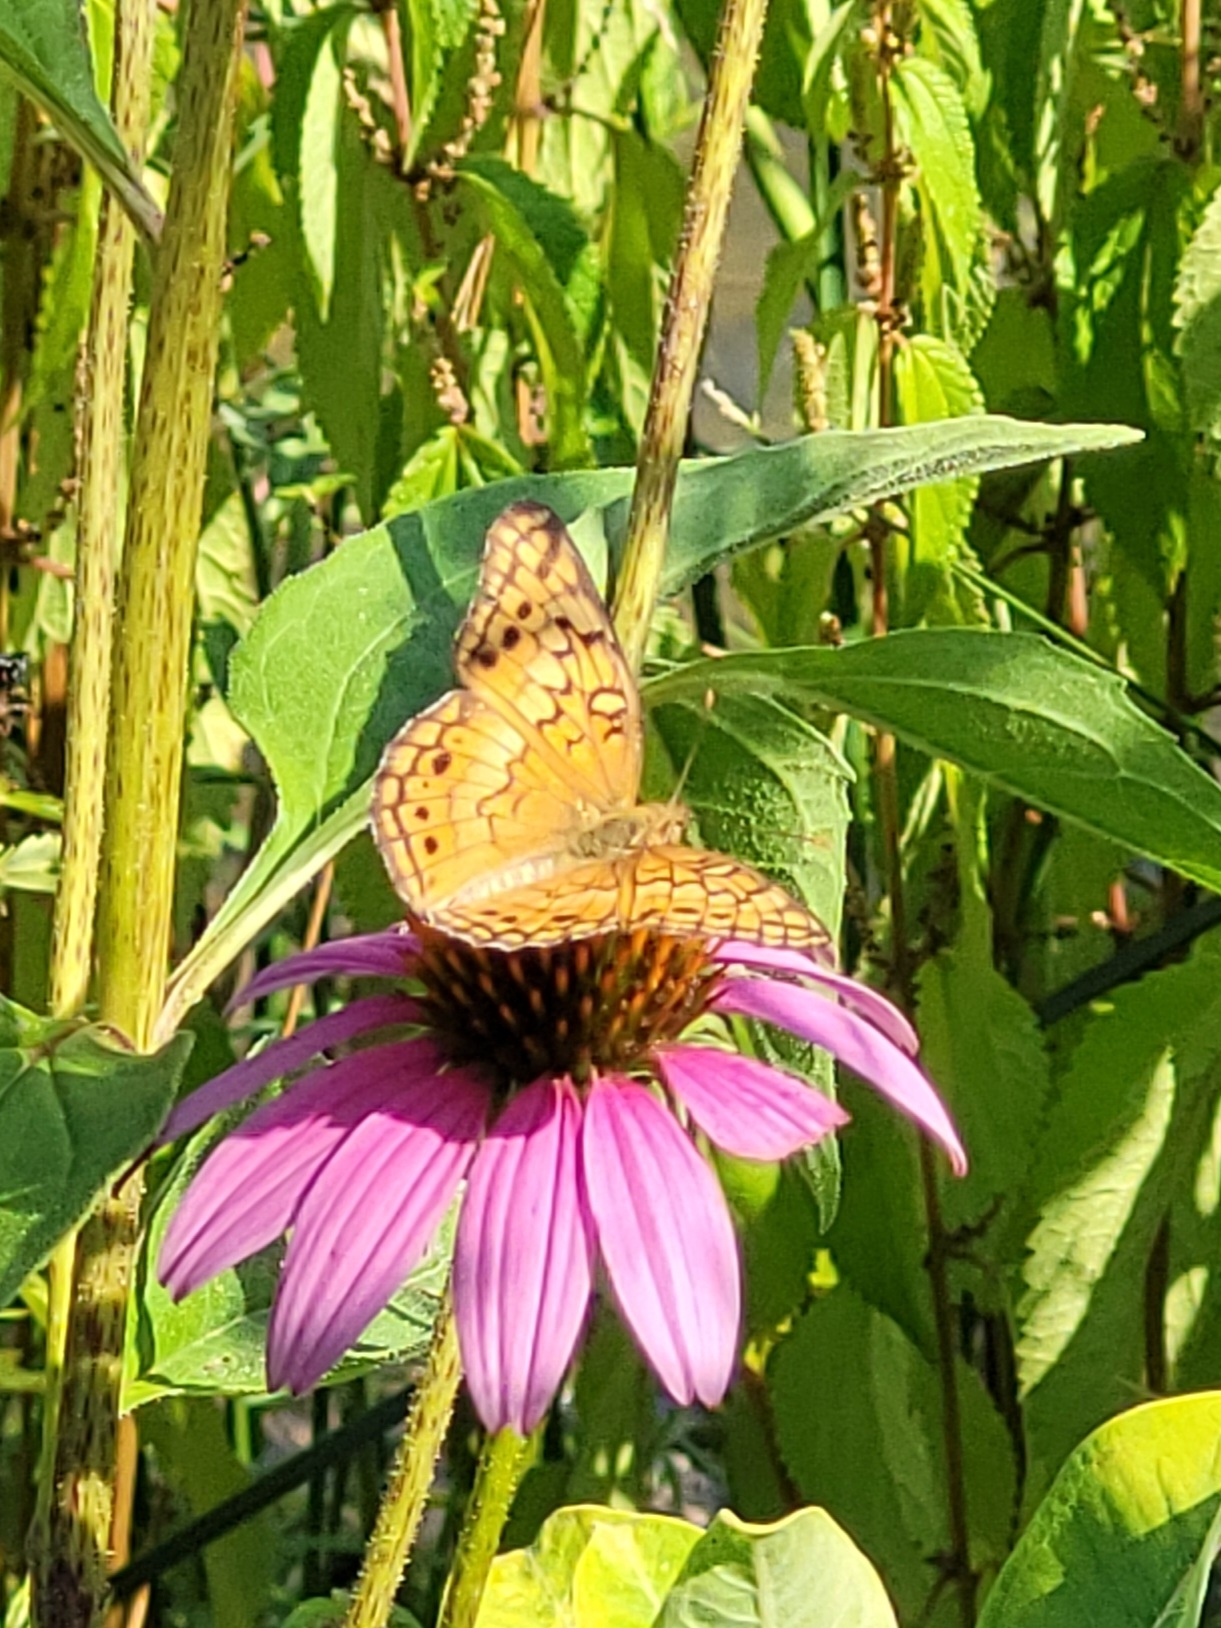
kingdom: Animalia
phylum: Arthropoda
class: Insecta
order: Lepidoptera
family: Nymphalidae
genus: Euptoieta
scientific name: Euptoieta claudia
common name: Variegated fritillary
